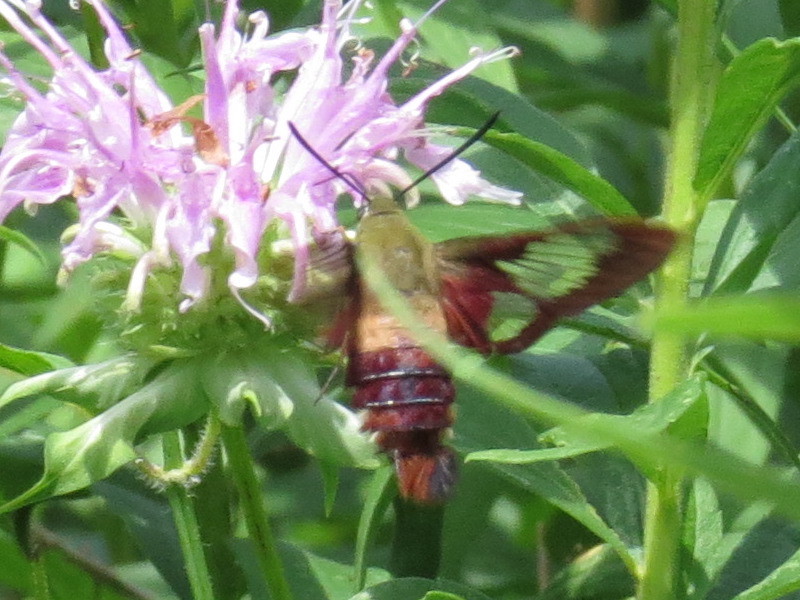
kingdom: Animalia
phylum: Arthropoda
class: Insecta
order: Lepidoptera
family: Sphingidae
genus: Hemaris
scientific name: Hemaris thysbe
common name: Common clear-wing
